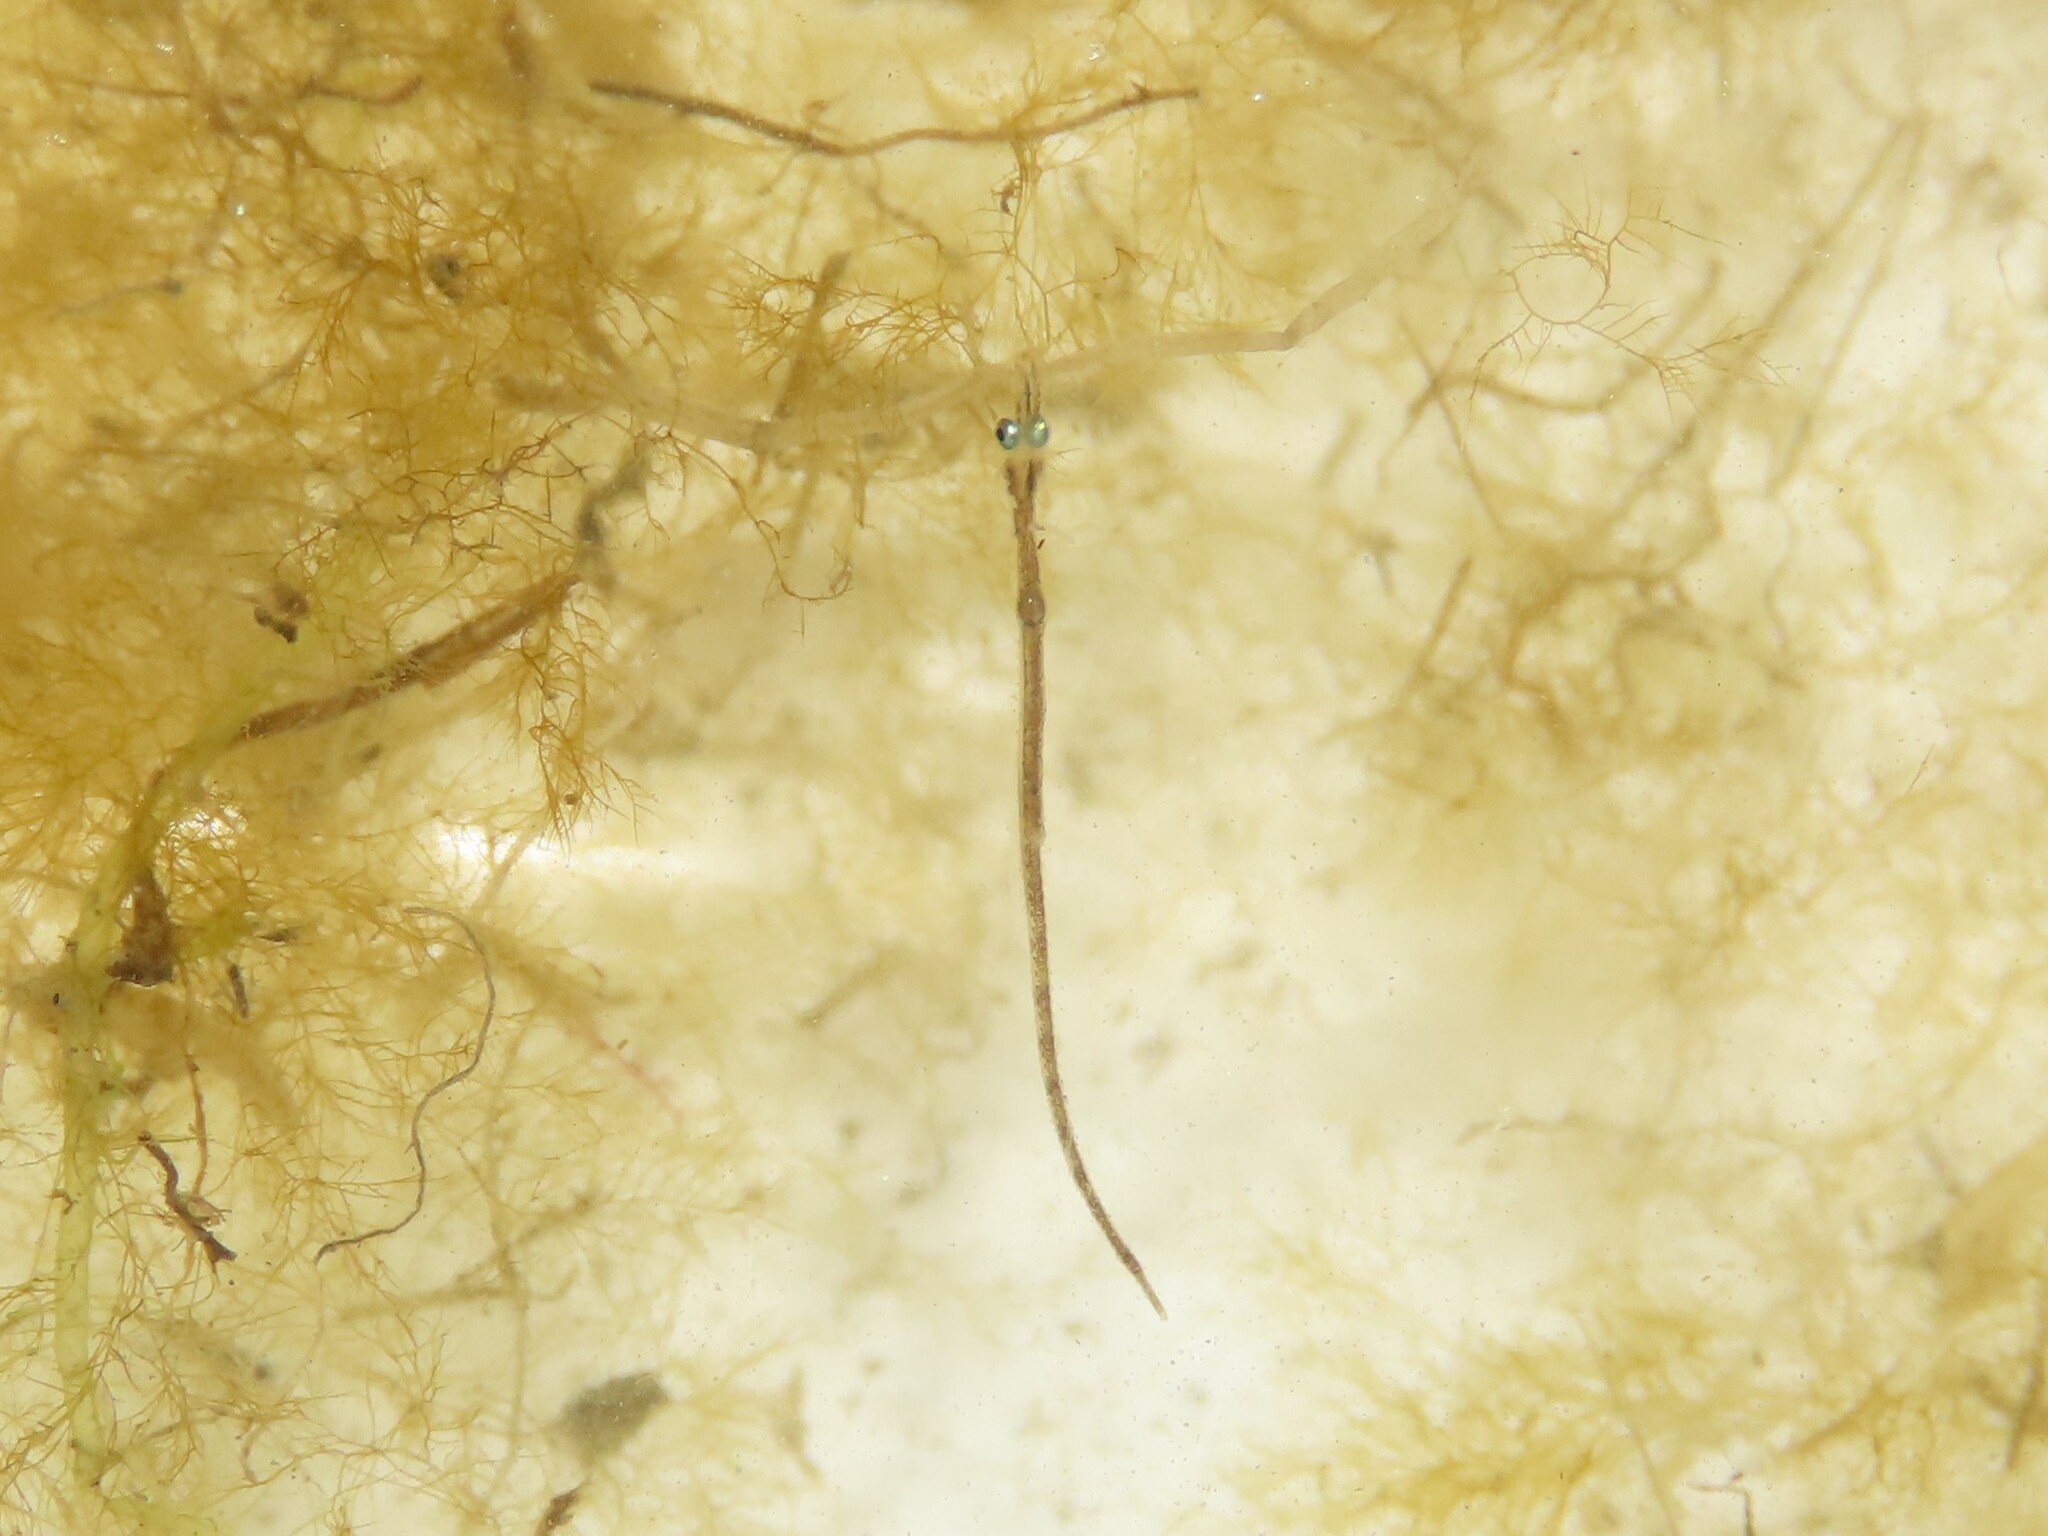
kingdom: Animalia
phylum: Chordata
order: Syngnathiformes
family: Syngnathidae
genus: Syngnathus
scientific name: Syngnathus fuscus
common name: Northern pipefish
